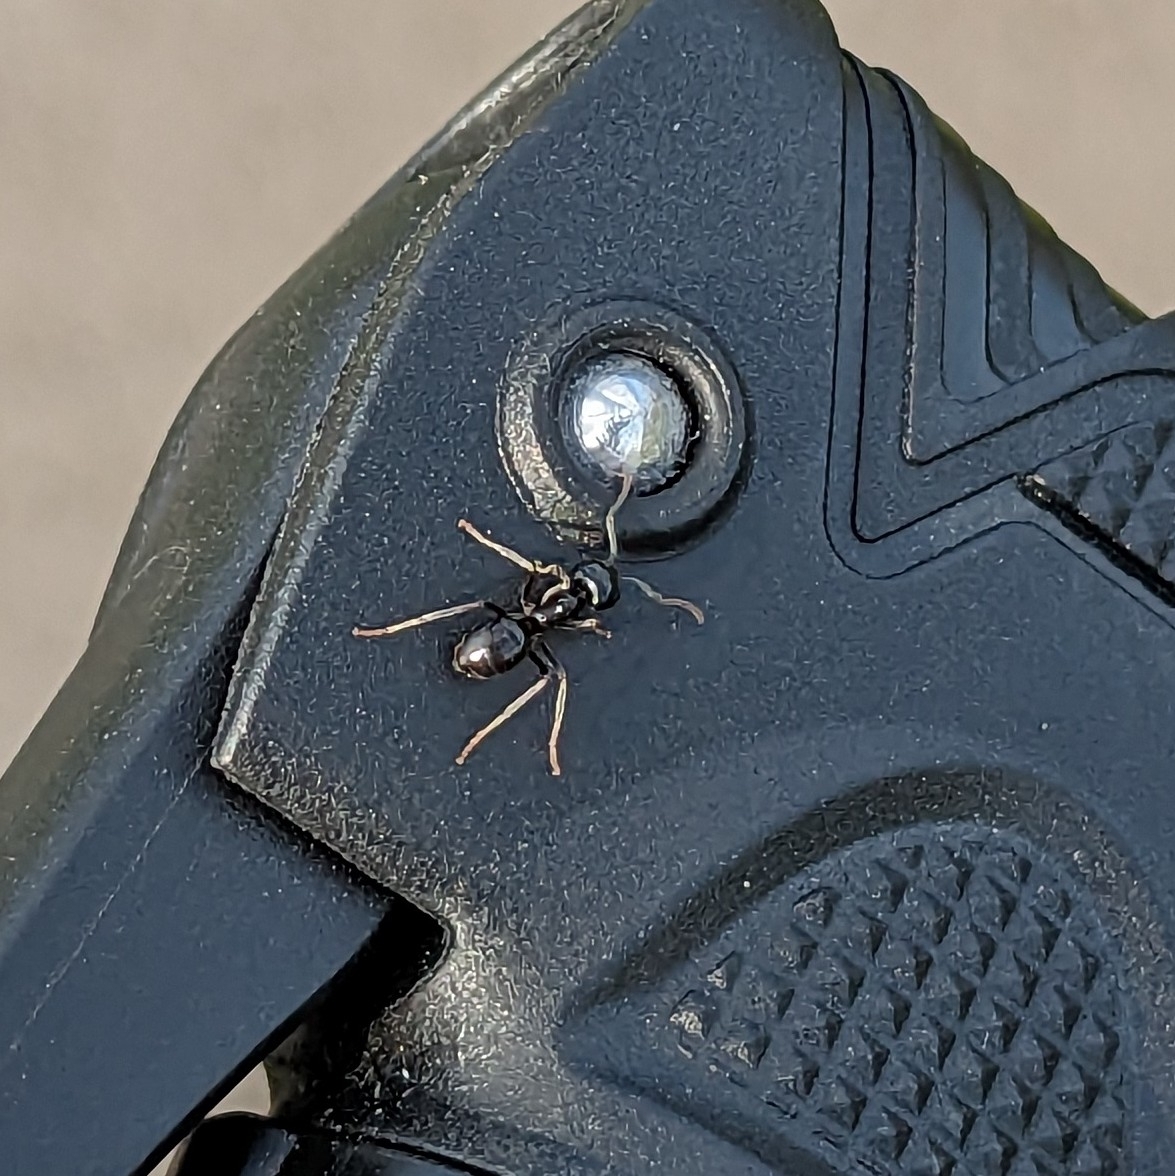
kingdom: Animalia
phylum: Arthropoda
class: Insecta
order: Hymenoptera
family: Formicidae
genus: Lasius
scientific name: Lasius fuliginosus
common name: Jet ant
